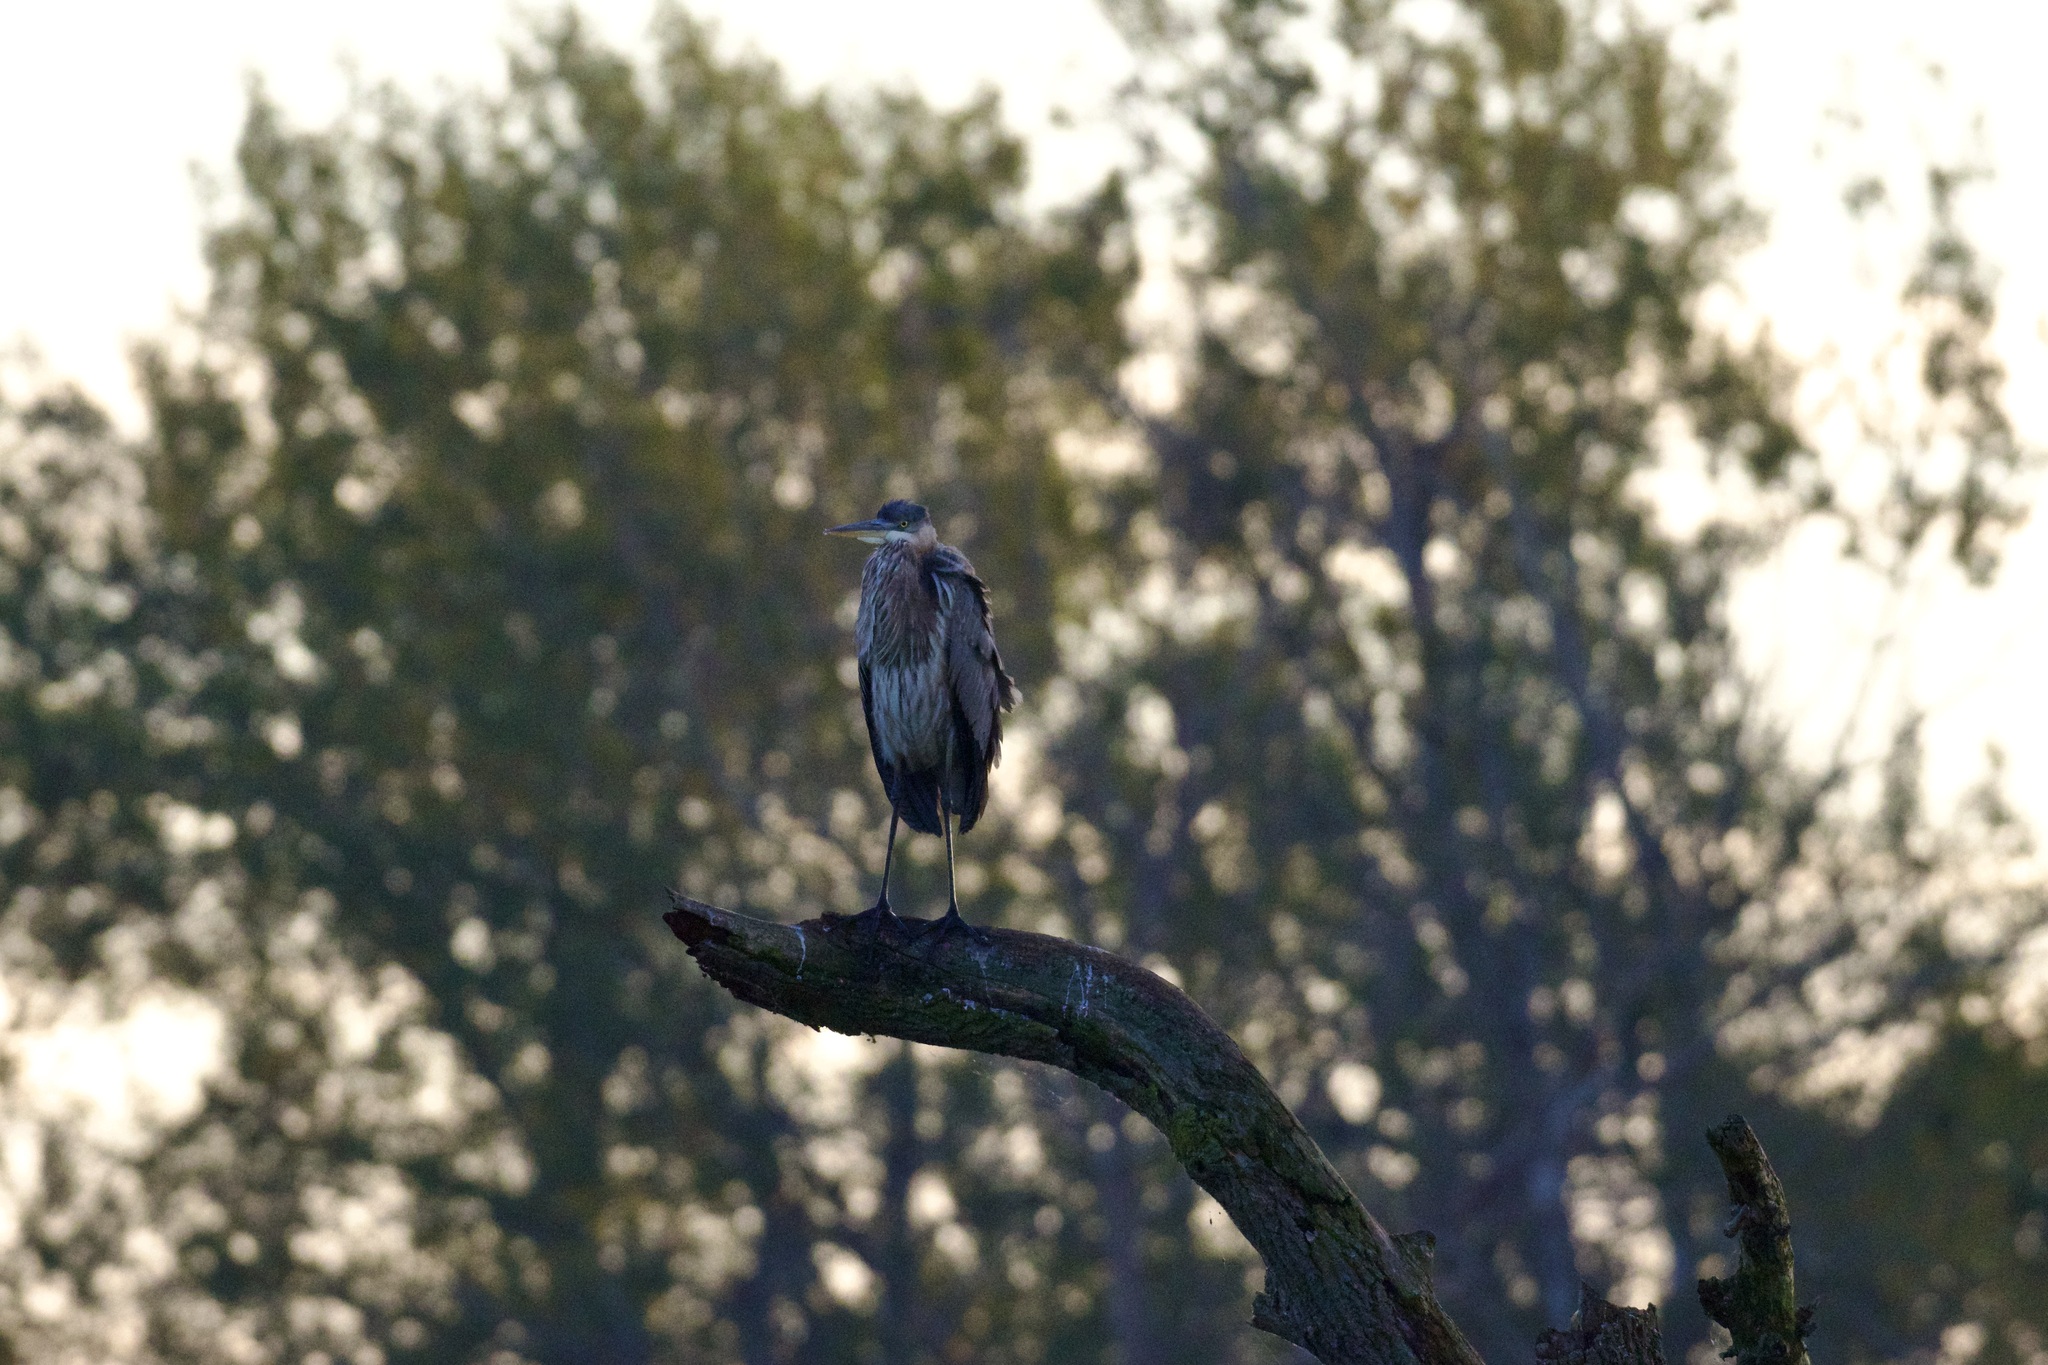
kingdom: Animalia
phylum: Chordata
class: Aves
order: Pelecaniformes
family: Ardeidae
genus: Ardea
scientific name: Ardea herodias
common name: Great blue heron
